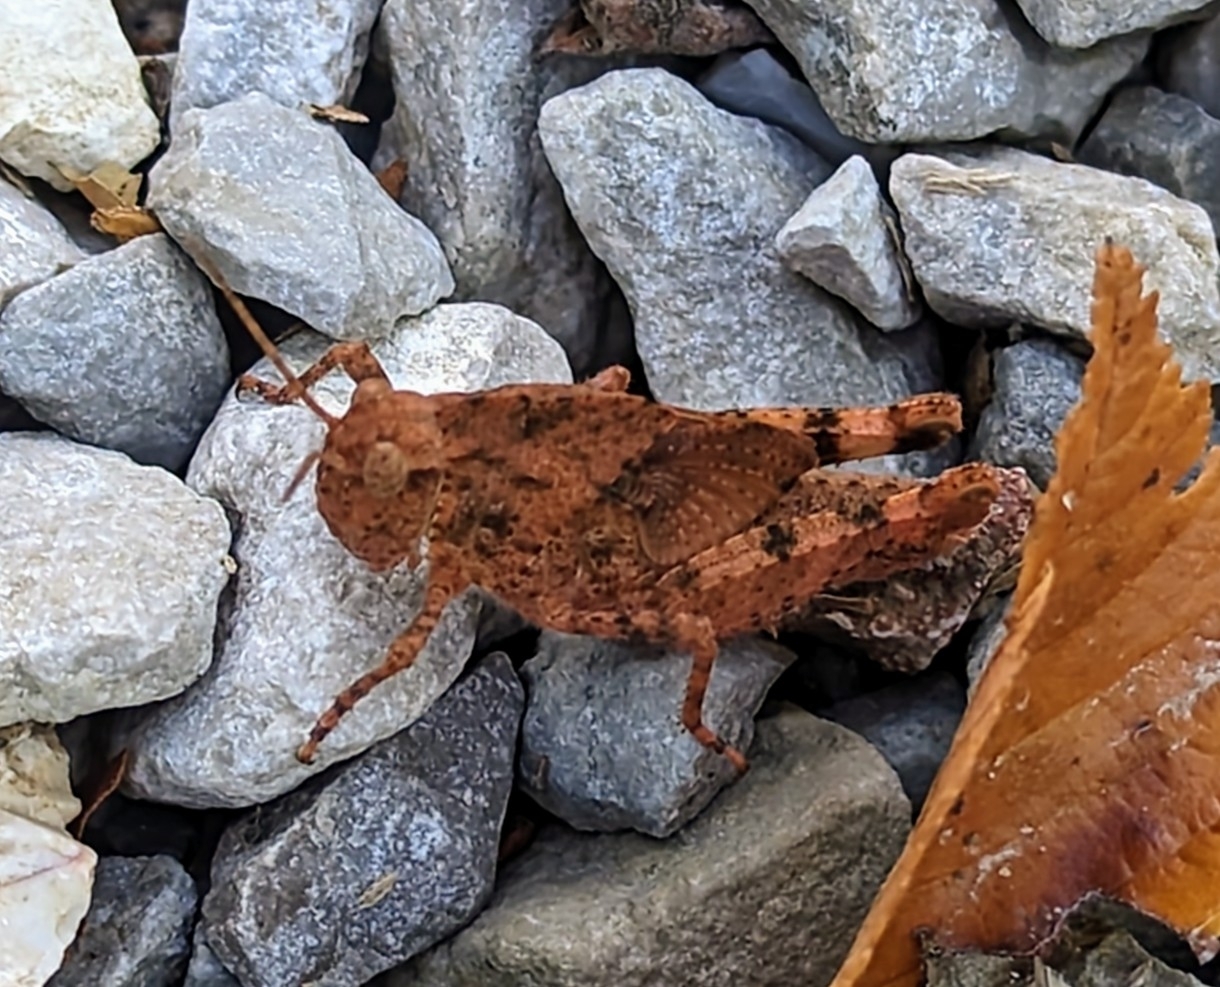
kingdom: Animalia
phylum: Arthropoda
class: Insecta
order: Orthoptera
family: Acrididae
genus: Dissosteira
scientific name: Dissosteira carolina
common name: Carolina grasshopper
